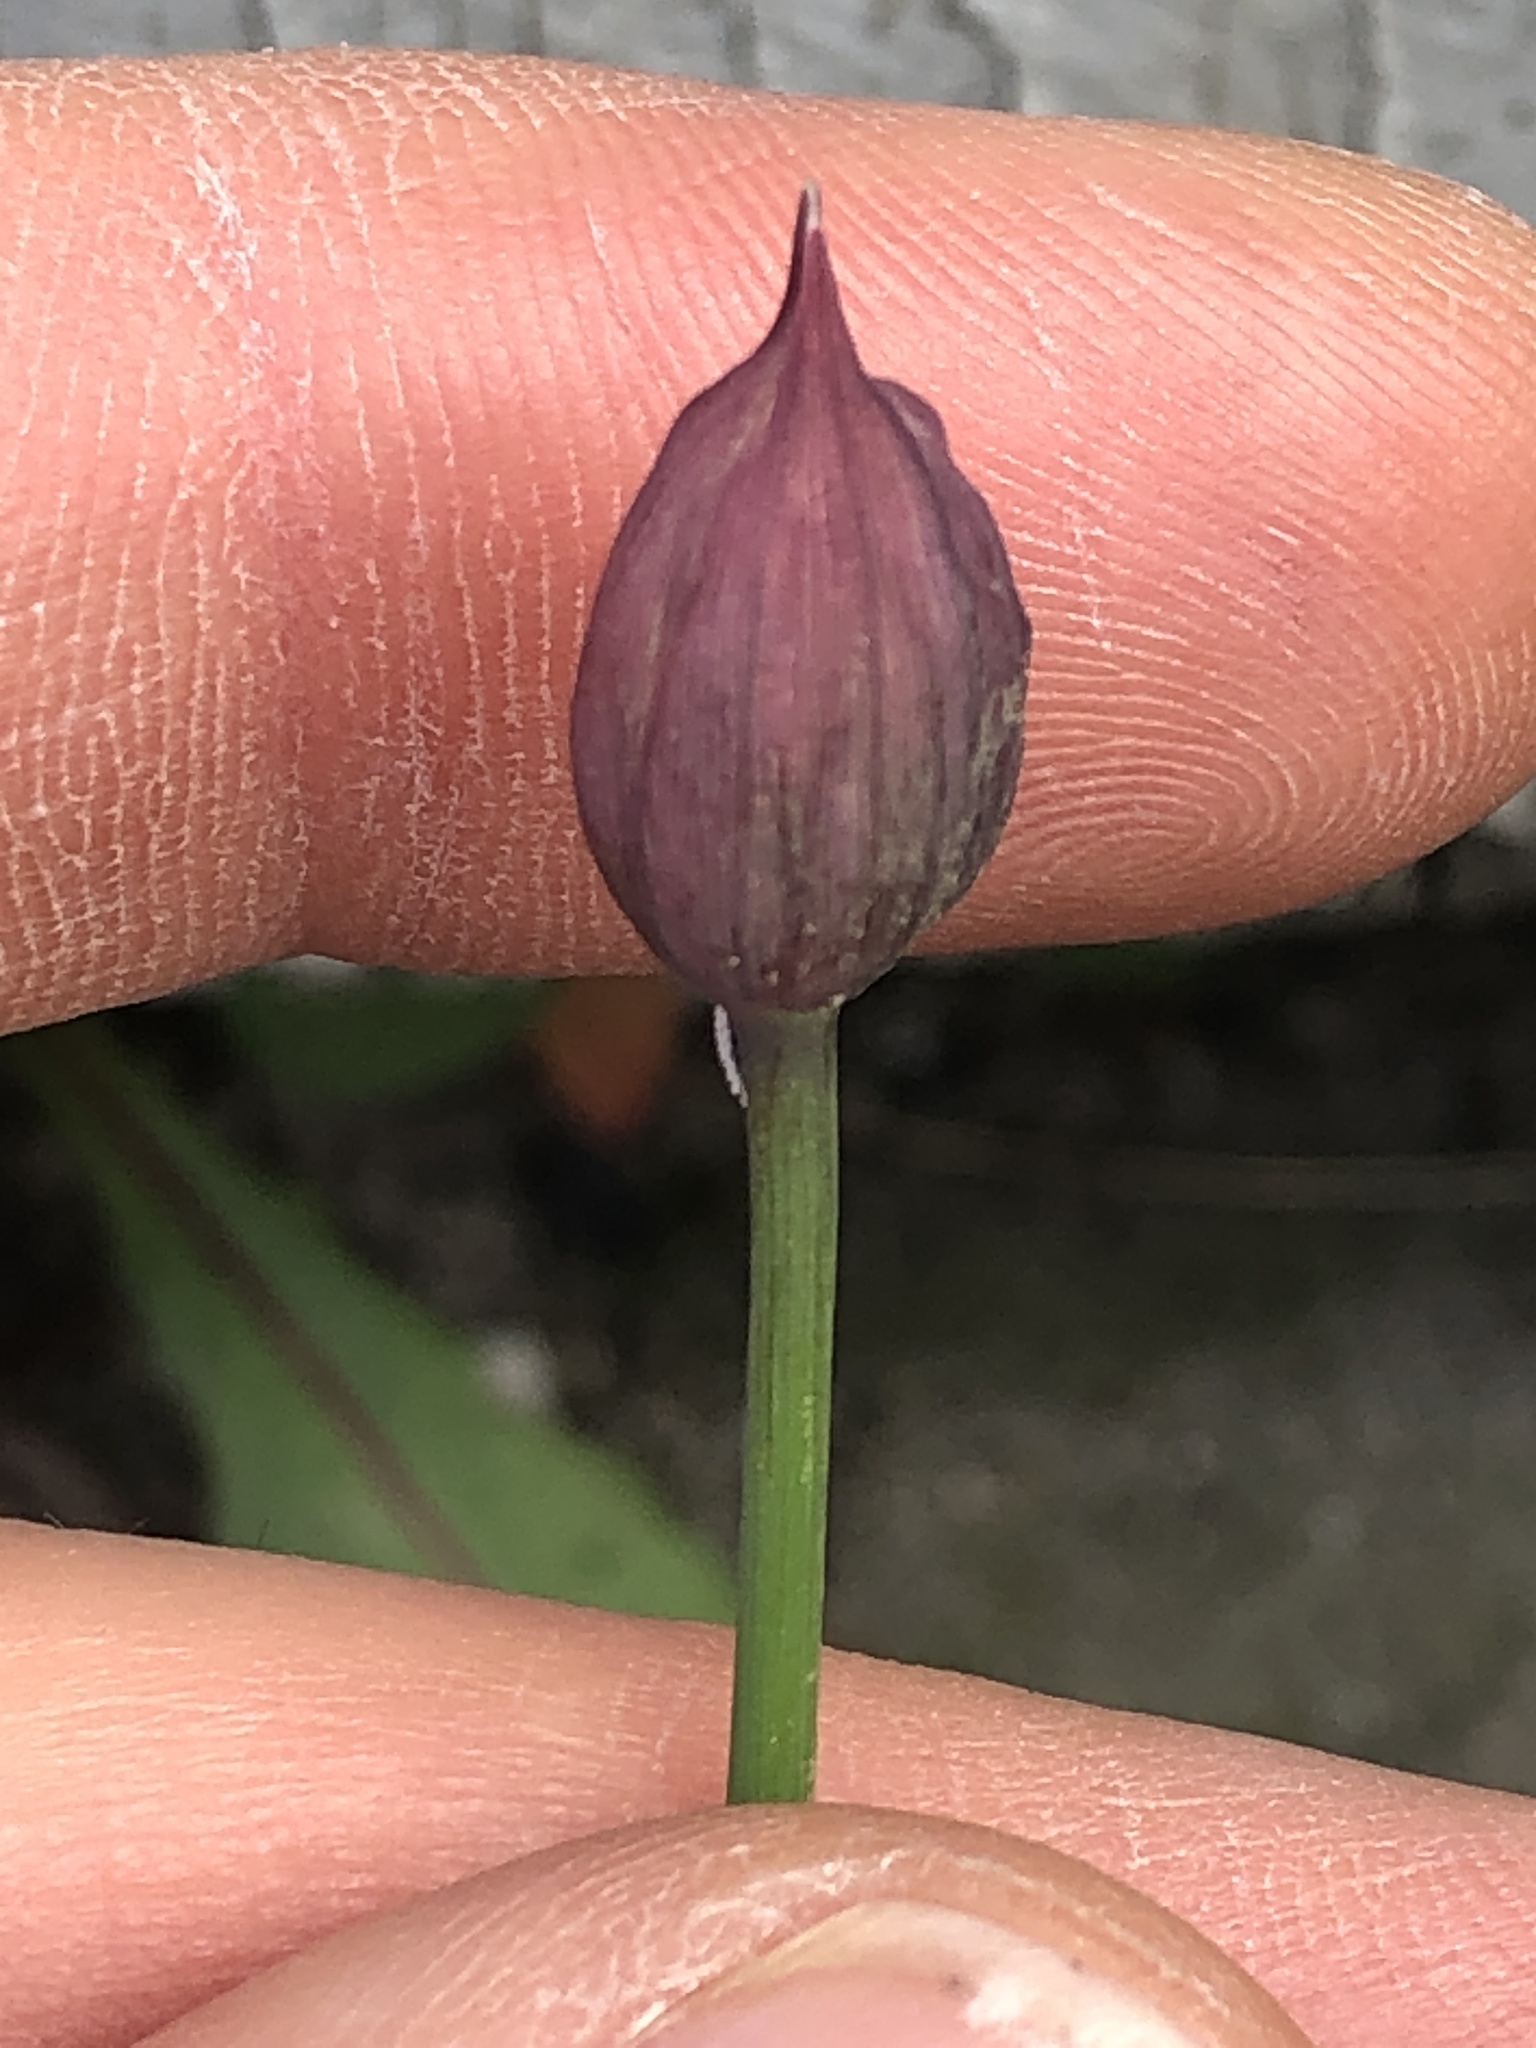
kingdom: Plantae
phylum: Tracheophyta
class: Liliopsida
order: Asparagales
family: Amaryllidaceae
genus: Allium
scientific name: Allium schoenoprasum
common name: Chives
